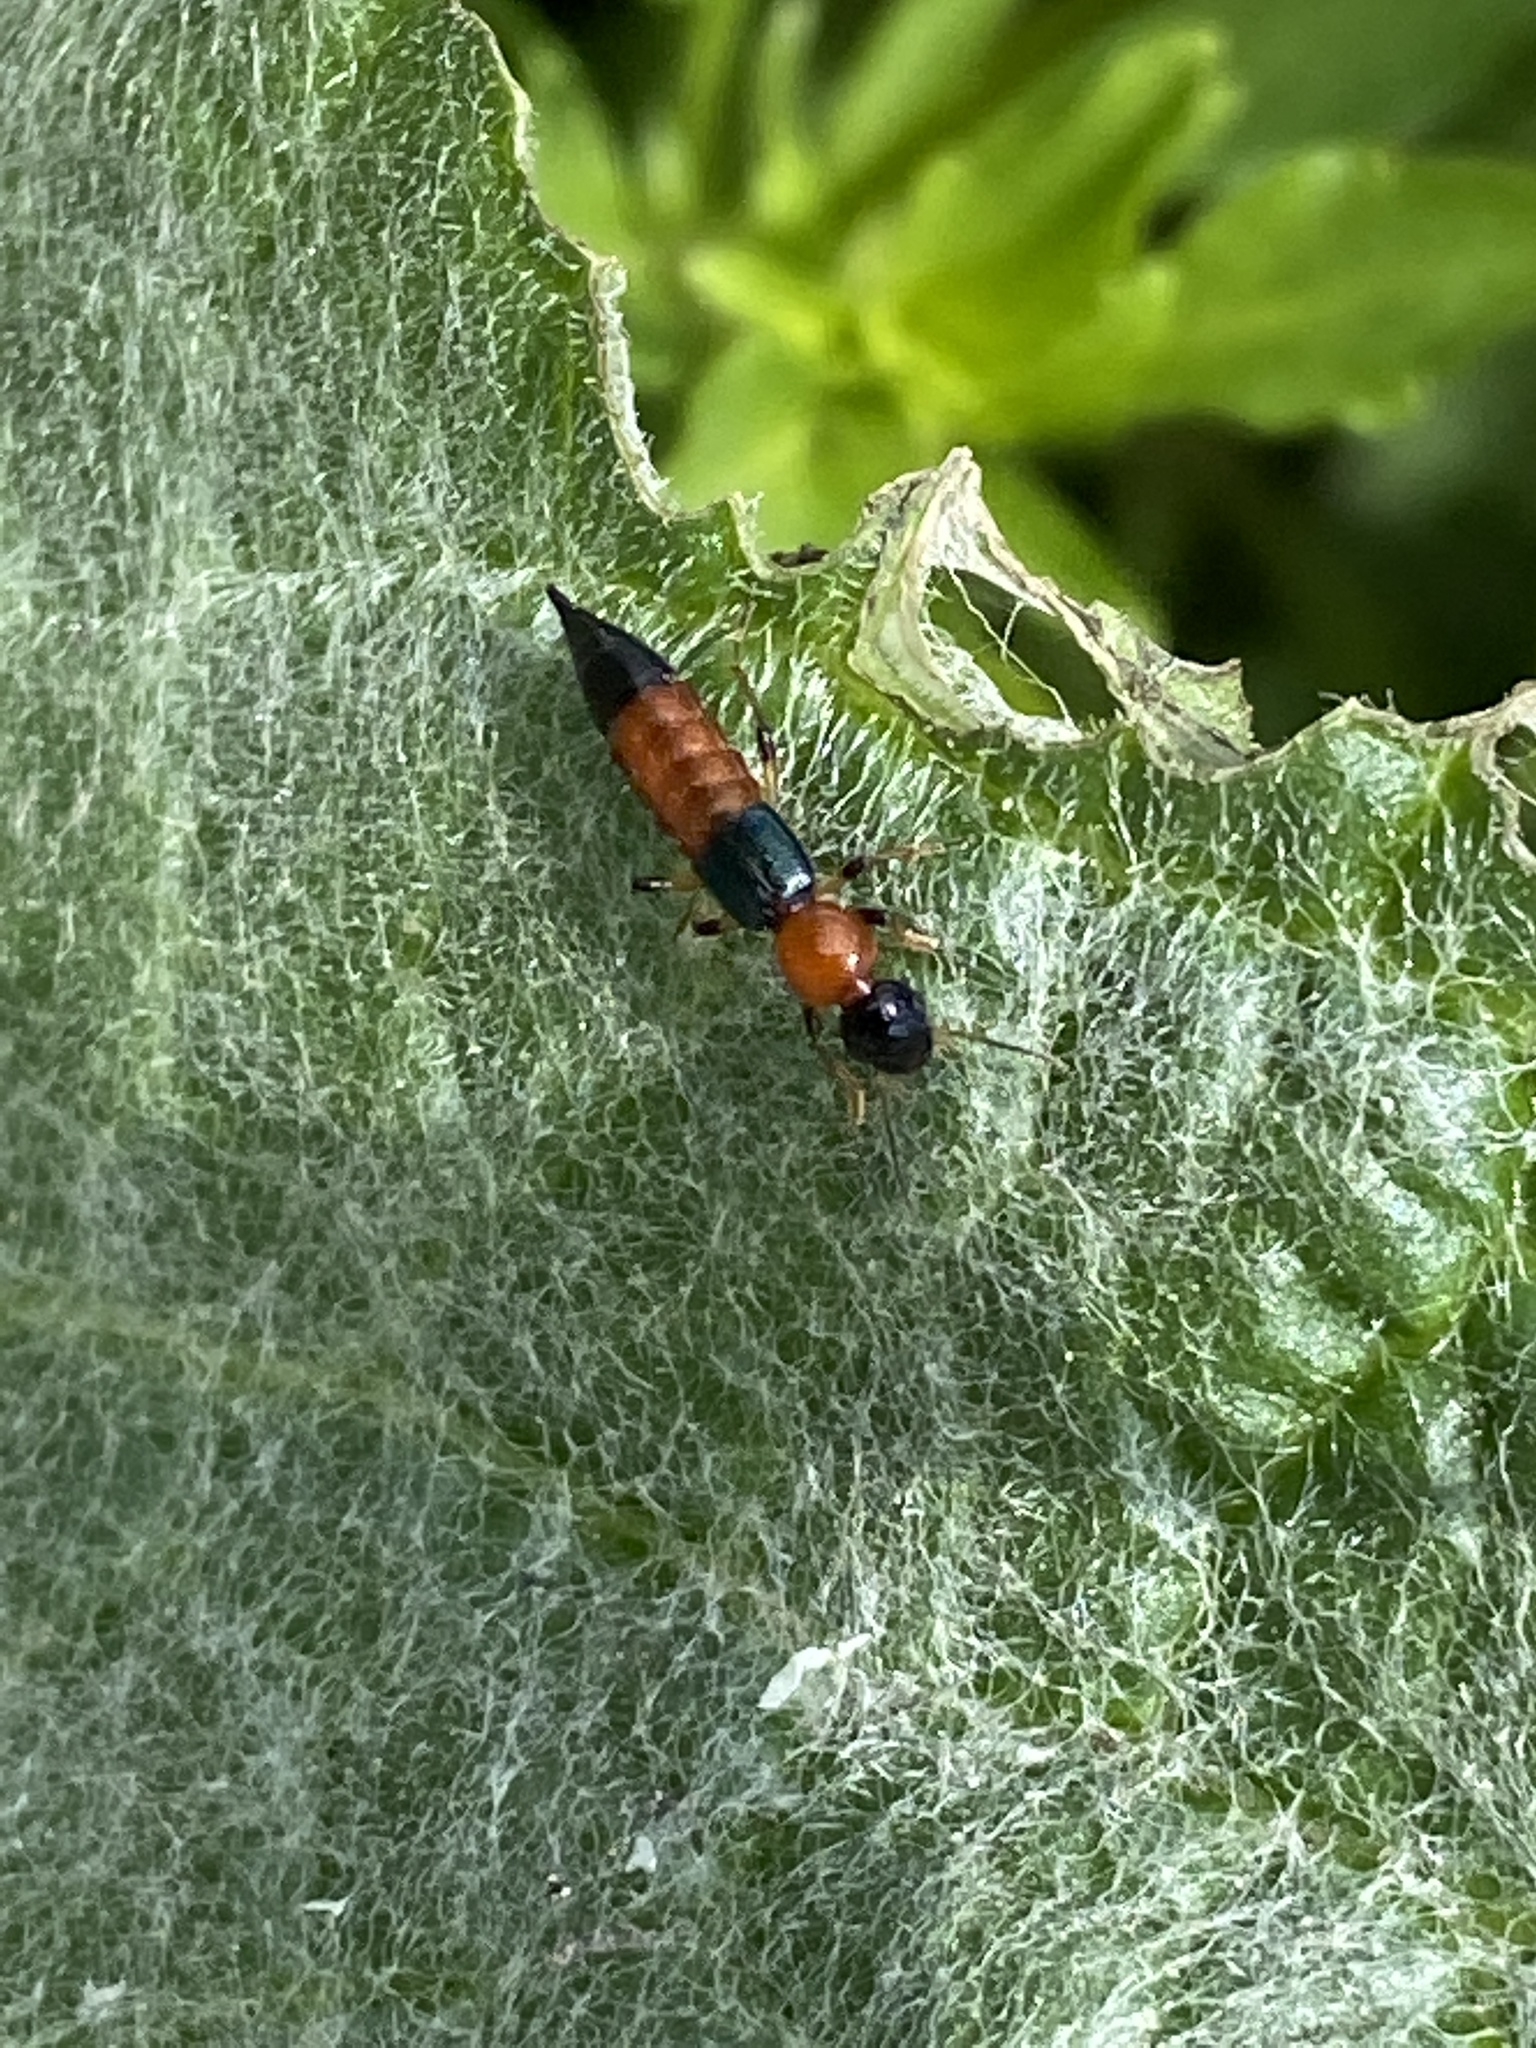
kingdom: Animalia
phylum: Arthropoda
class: Insecta
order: Coleoptera
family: Staphylinidae
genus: Paederus
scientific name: Paederus littoralis
